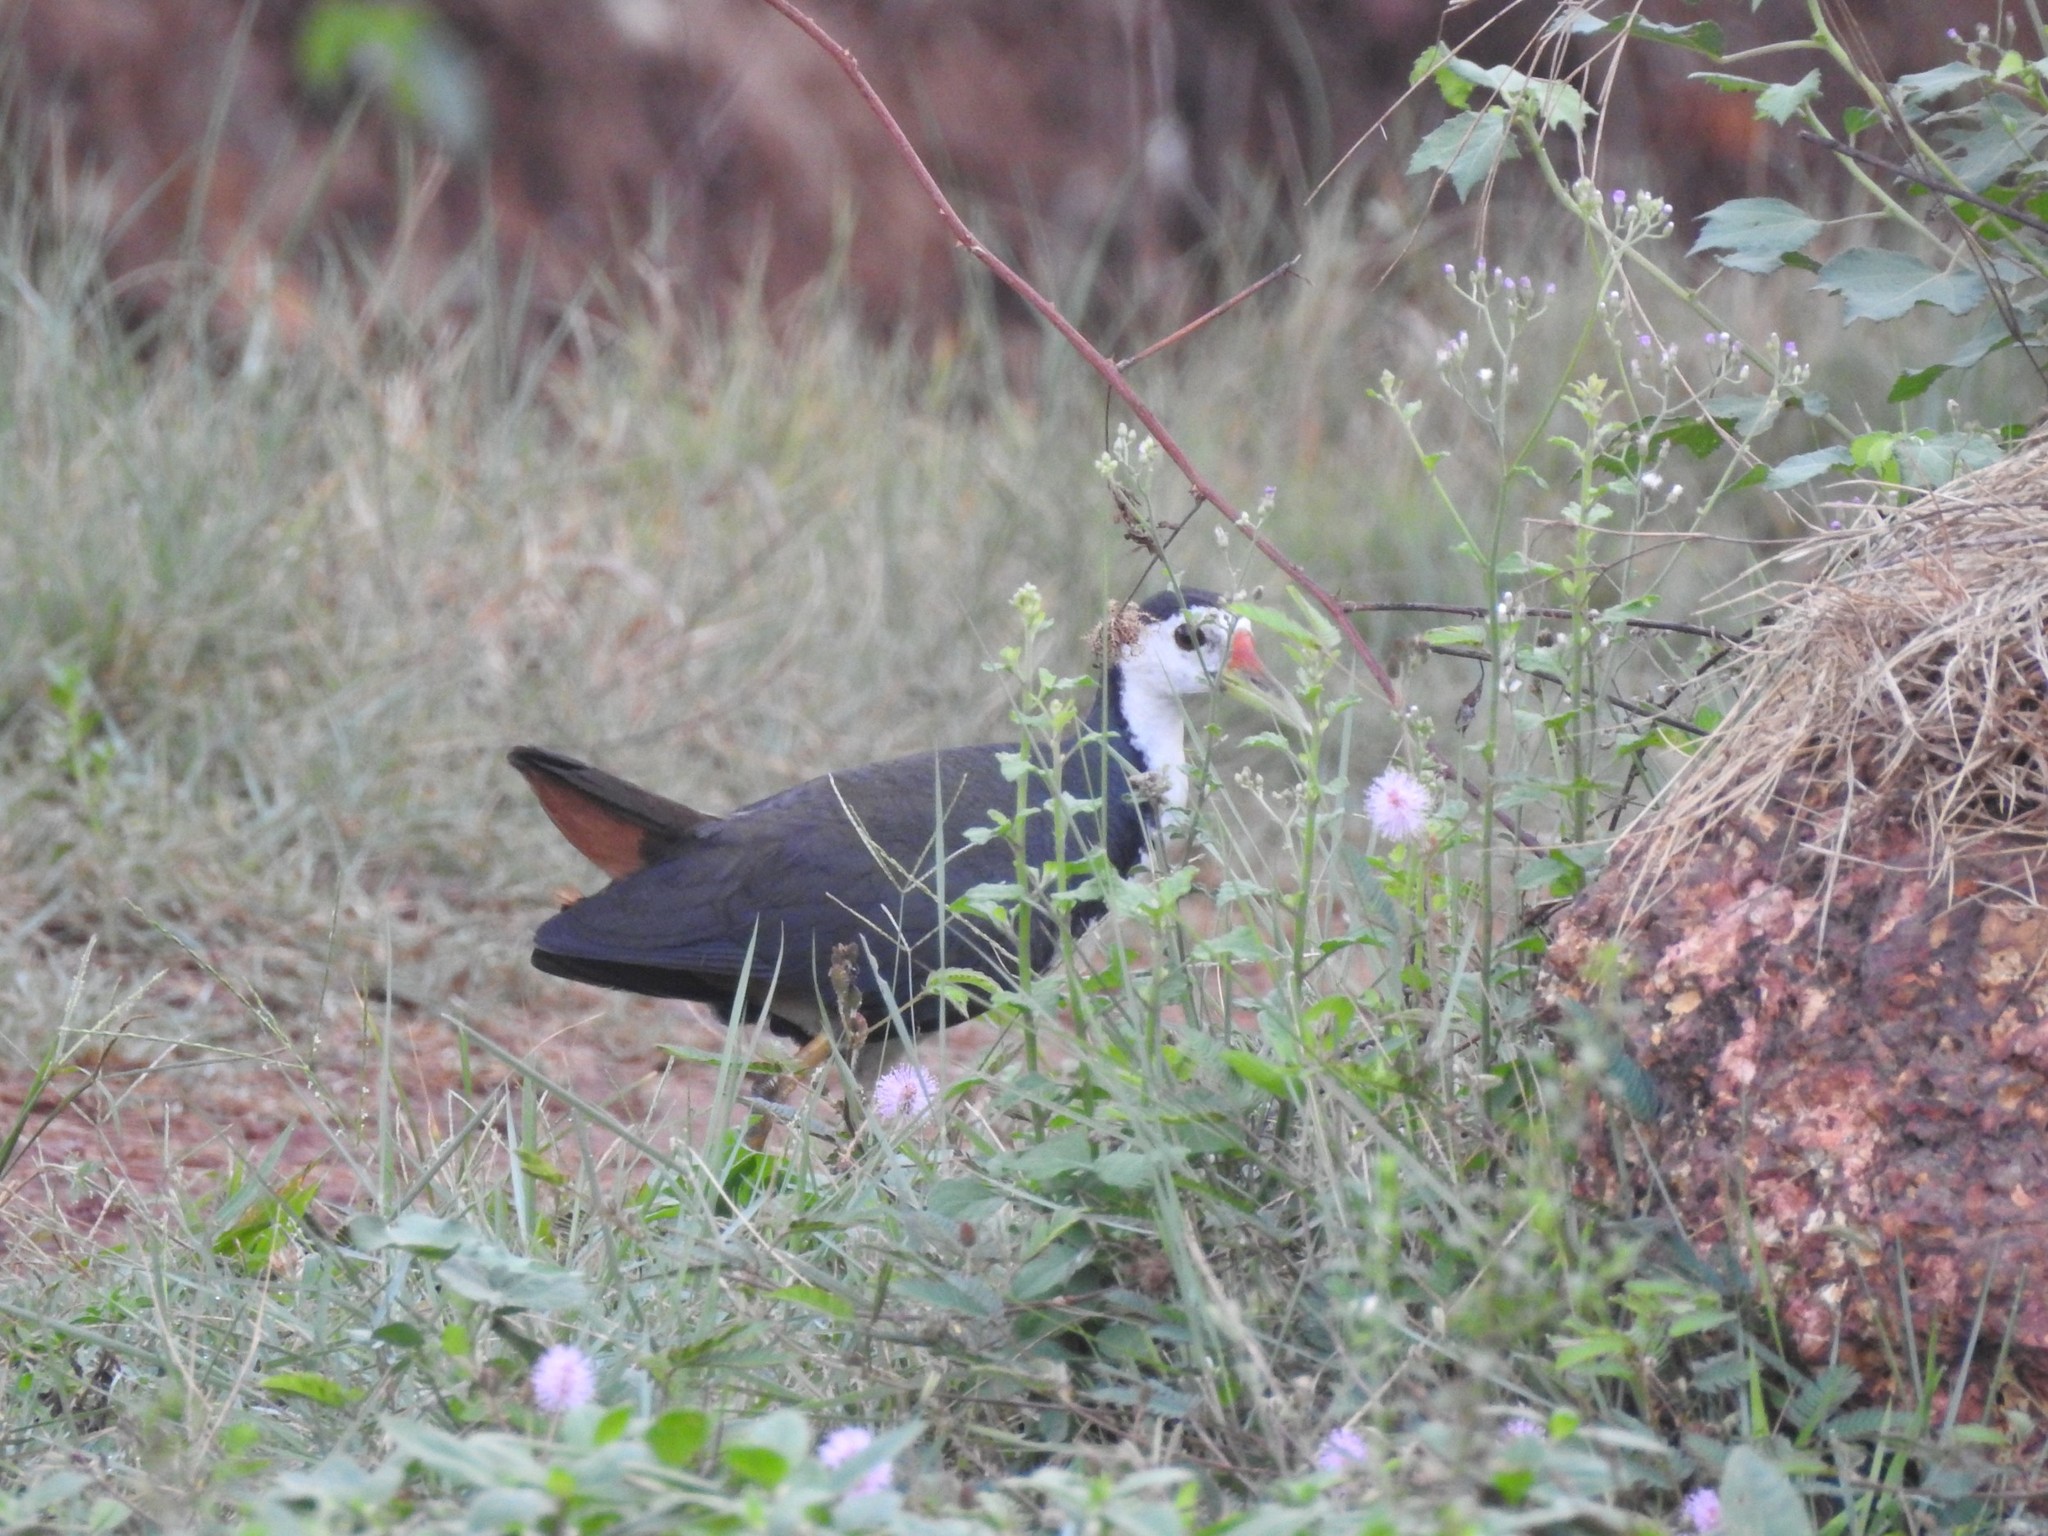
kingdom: Animalia
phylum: Chordata
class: Aves
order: Gruiformes
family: Rallidae
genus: Amaurornis
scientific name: Amaurornis phoenicurus
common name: White-breasted waterhen
